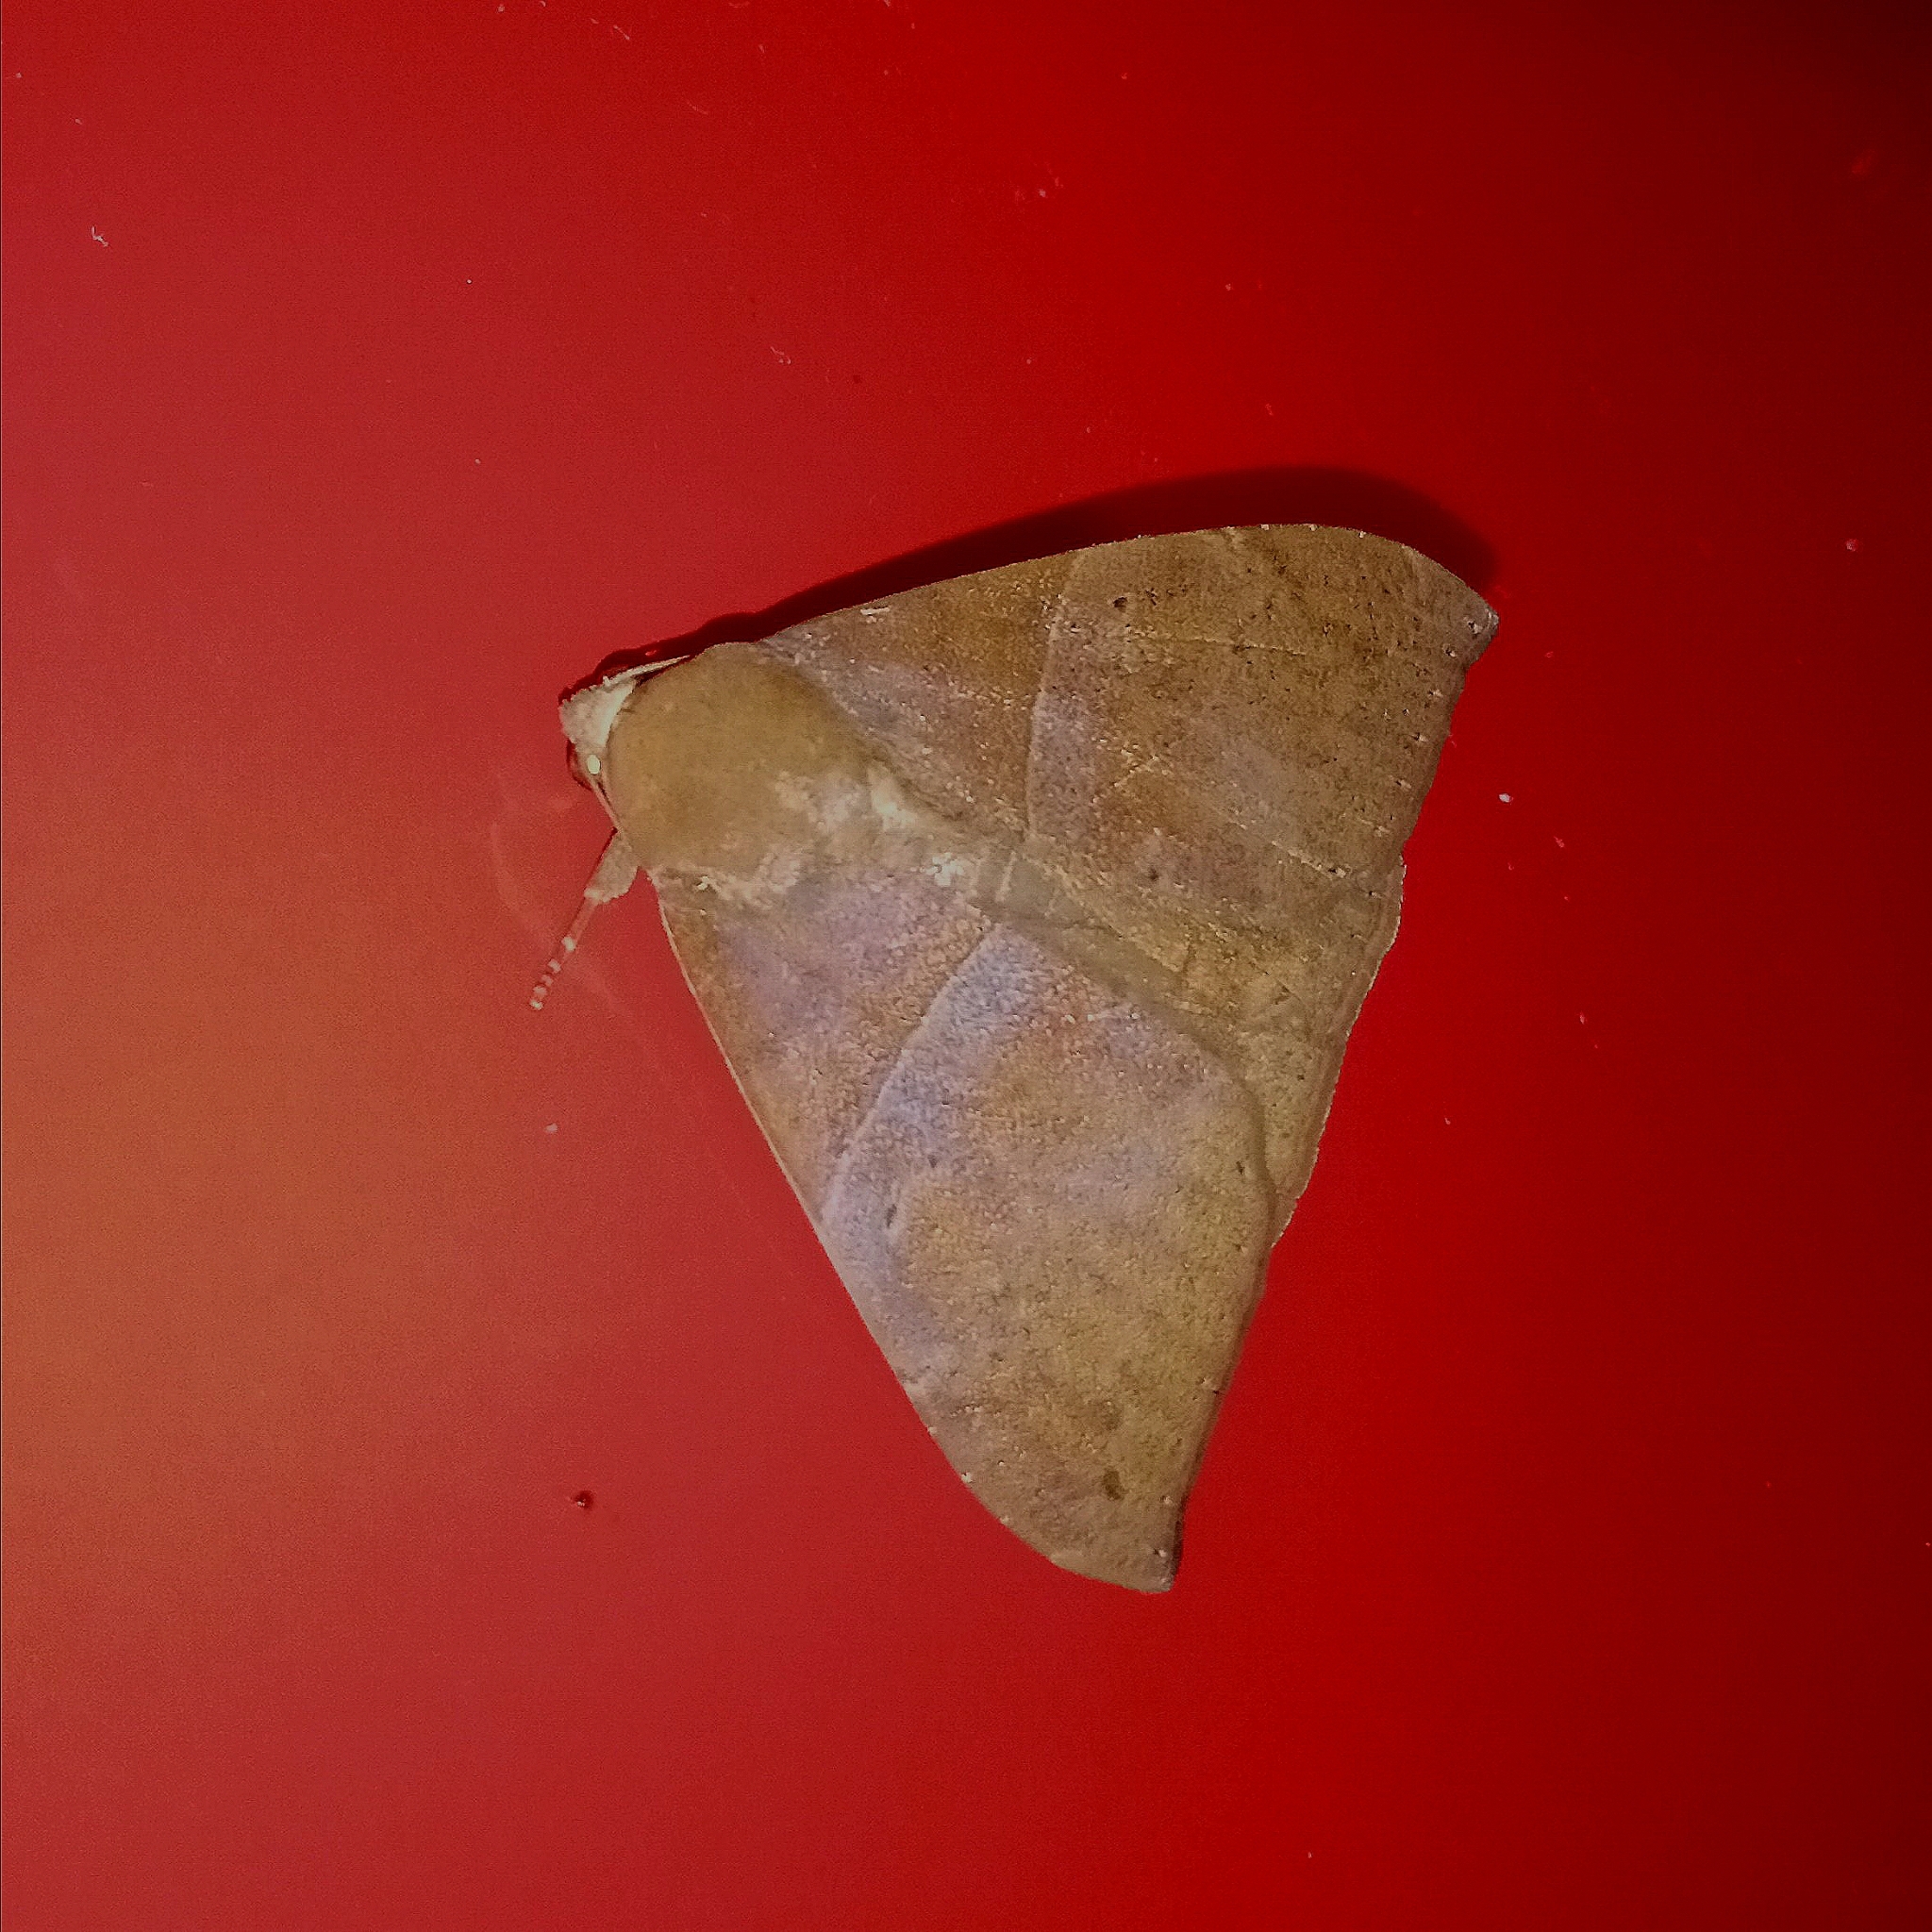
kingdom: Animalia
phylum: Arthropoda
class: Insecta
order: Lepidoptera
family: Erebidae
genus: Ophisma
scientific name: Ophisma tropicalis
